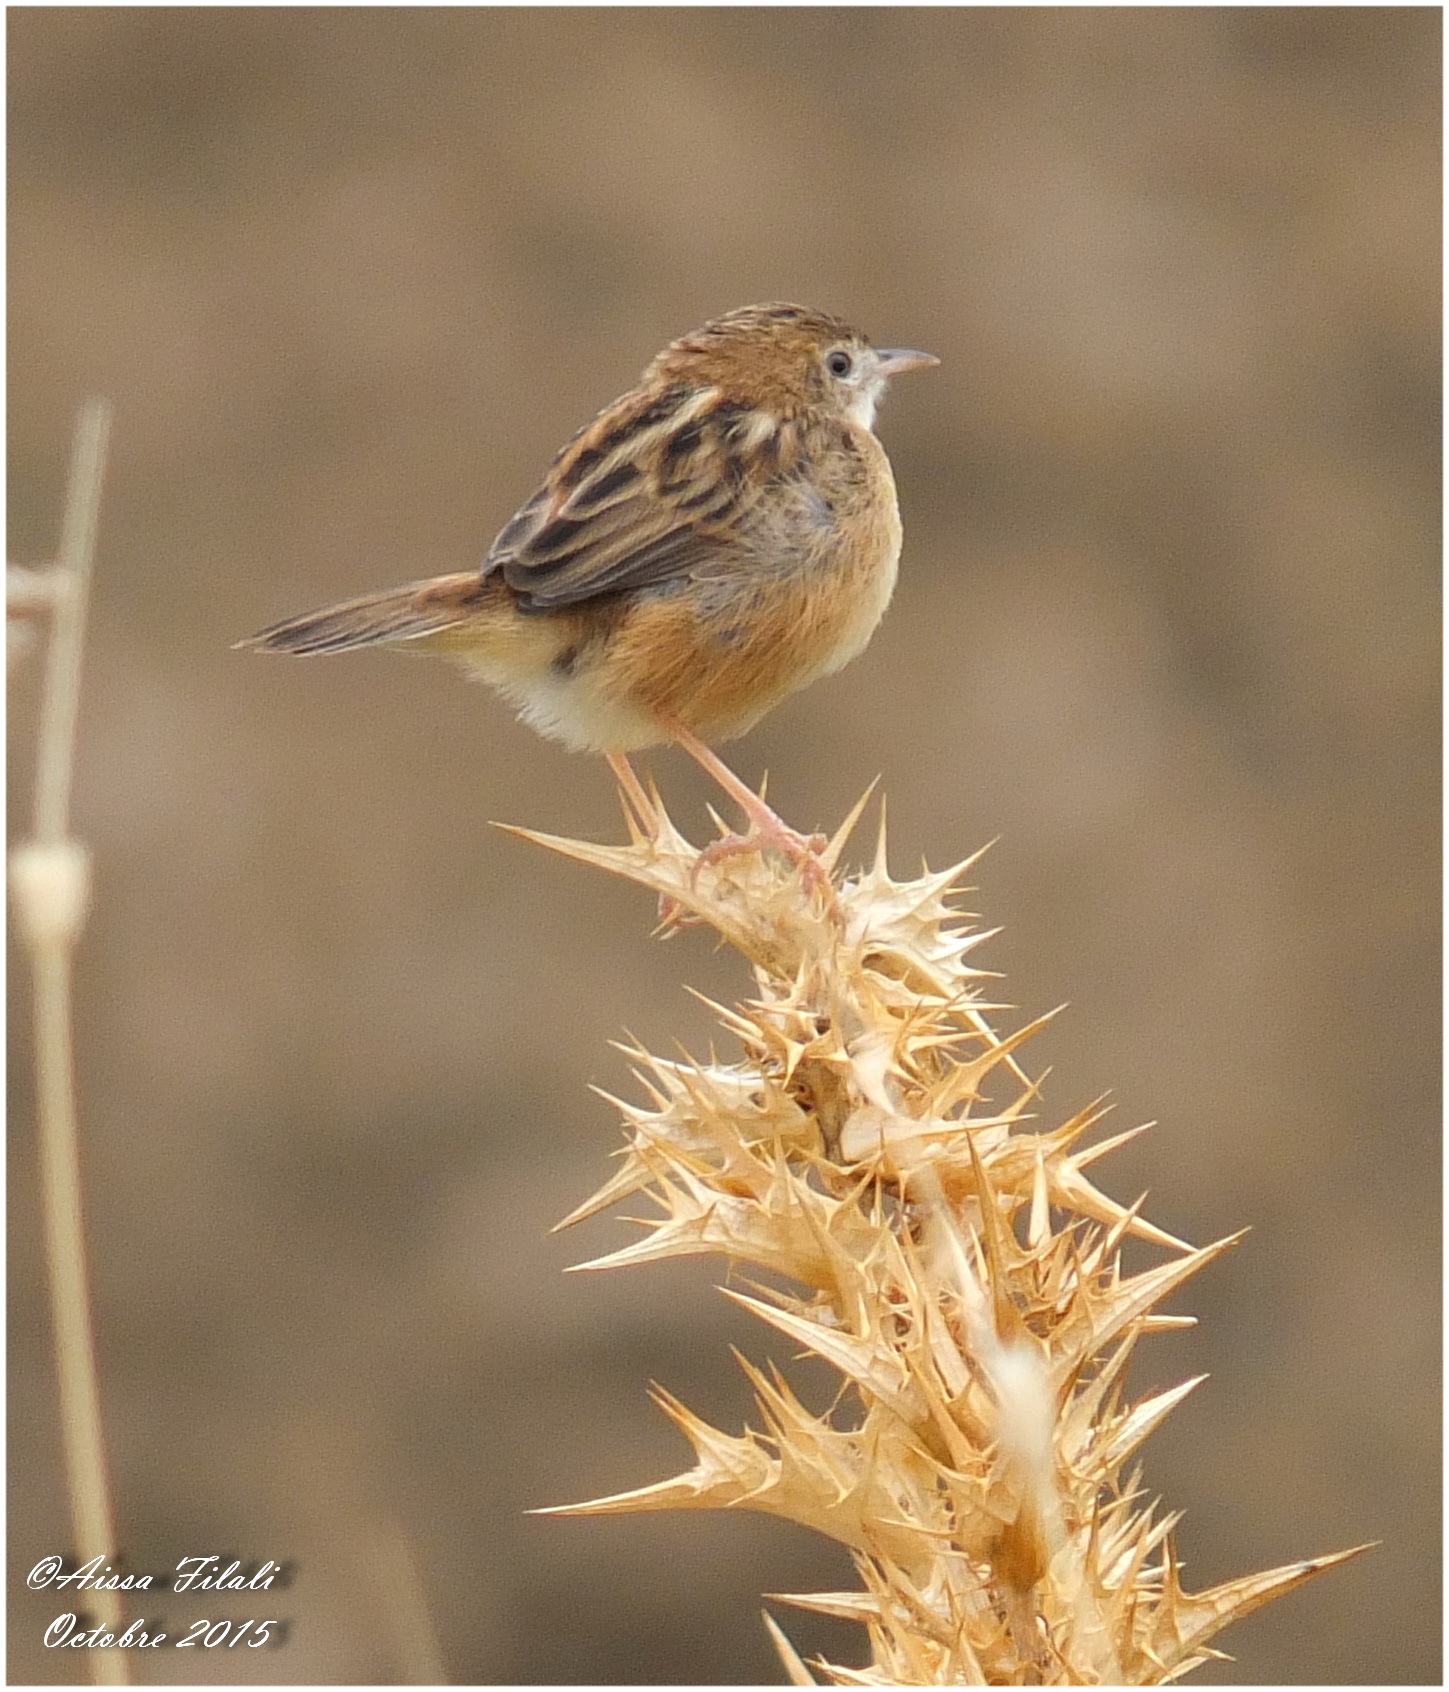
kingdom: Animalia
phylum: Chordata
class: Aves
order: Passeriformes
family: Cisticolidae
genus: Cisticola
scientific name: Cisticola juncidis
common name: Zitting cisticola
